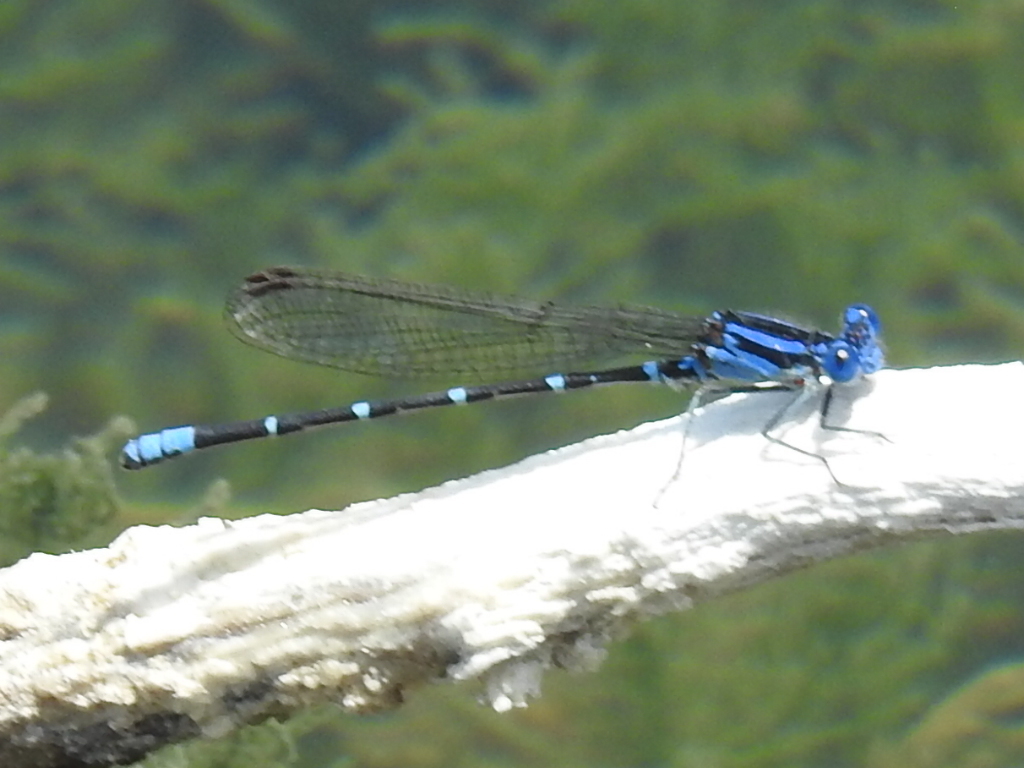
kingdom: Animalia
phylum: Arthropoda
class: Insecta
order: Odonata
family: Coenagrionidae
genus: Argia
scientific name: Argia sedula
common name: Blue-ringed dancer
